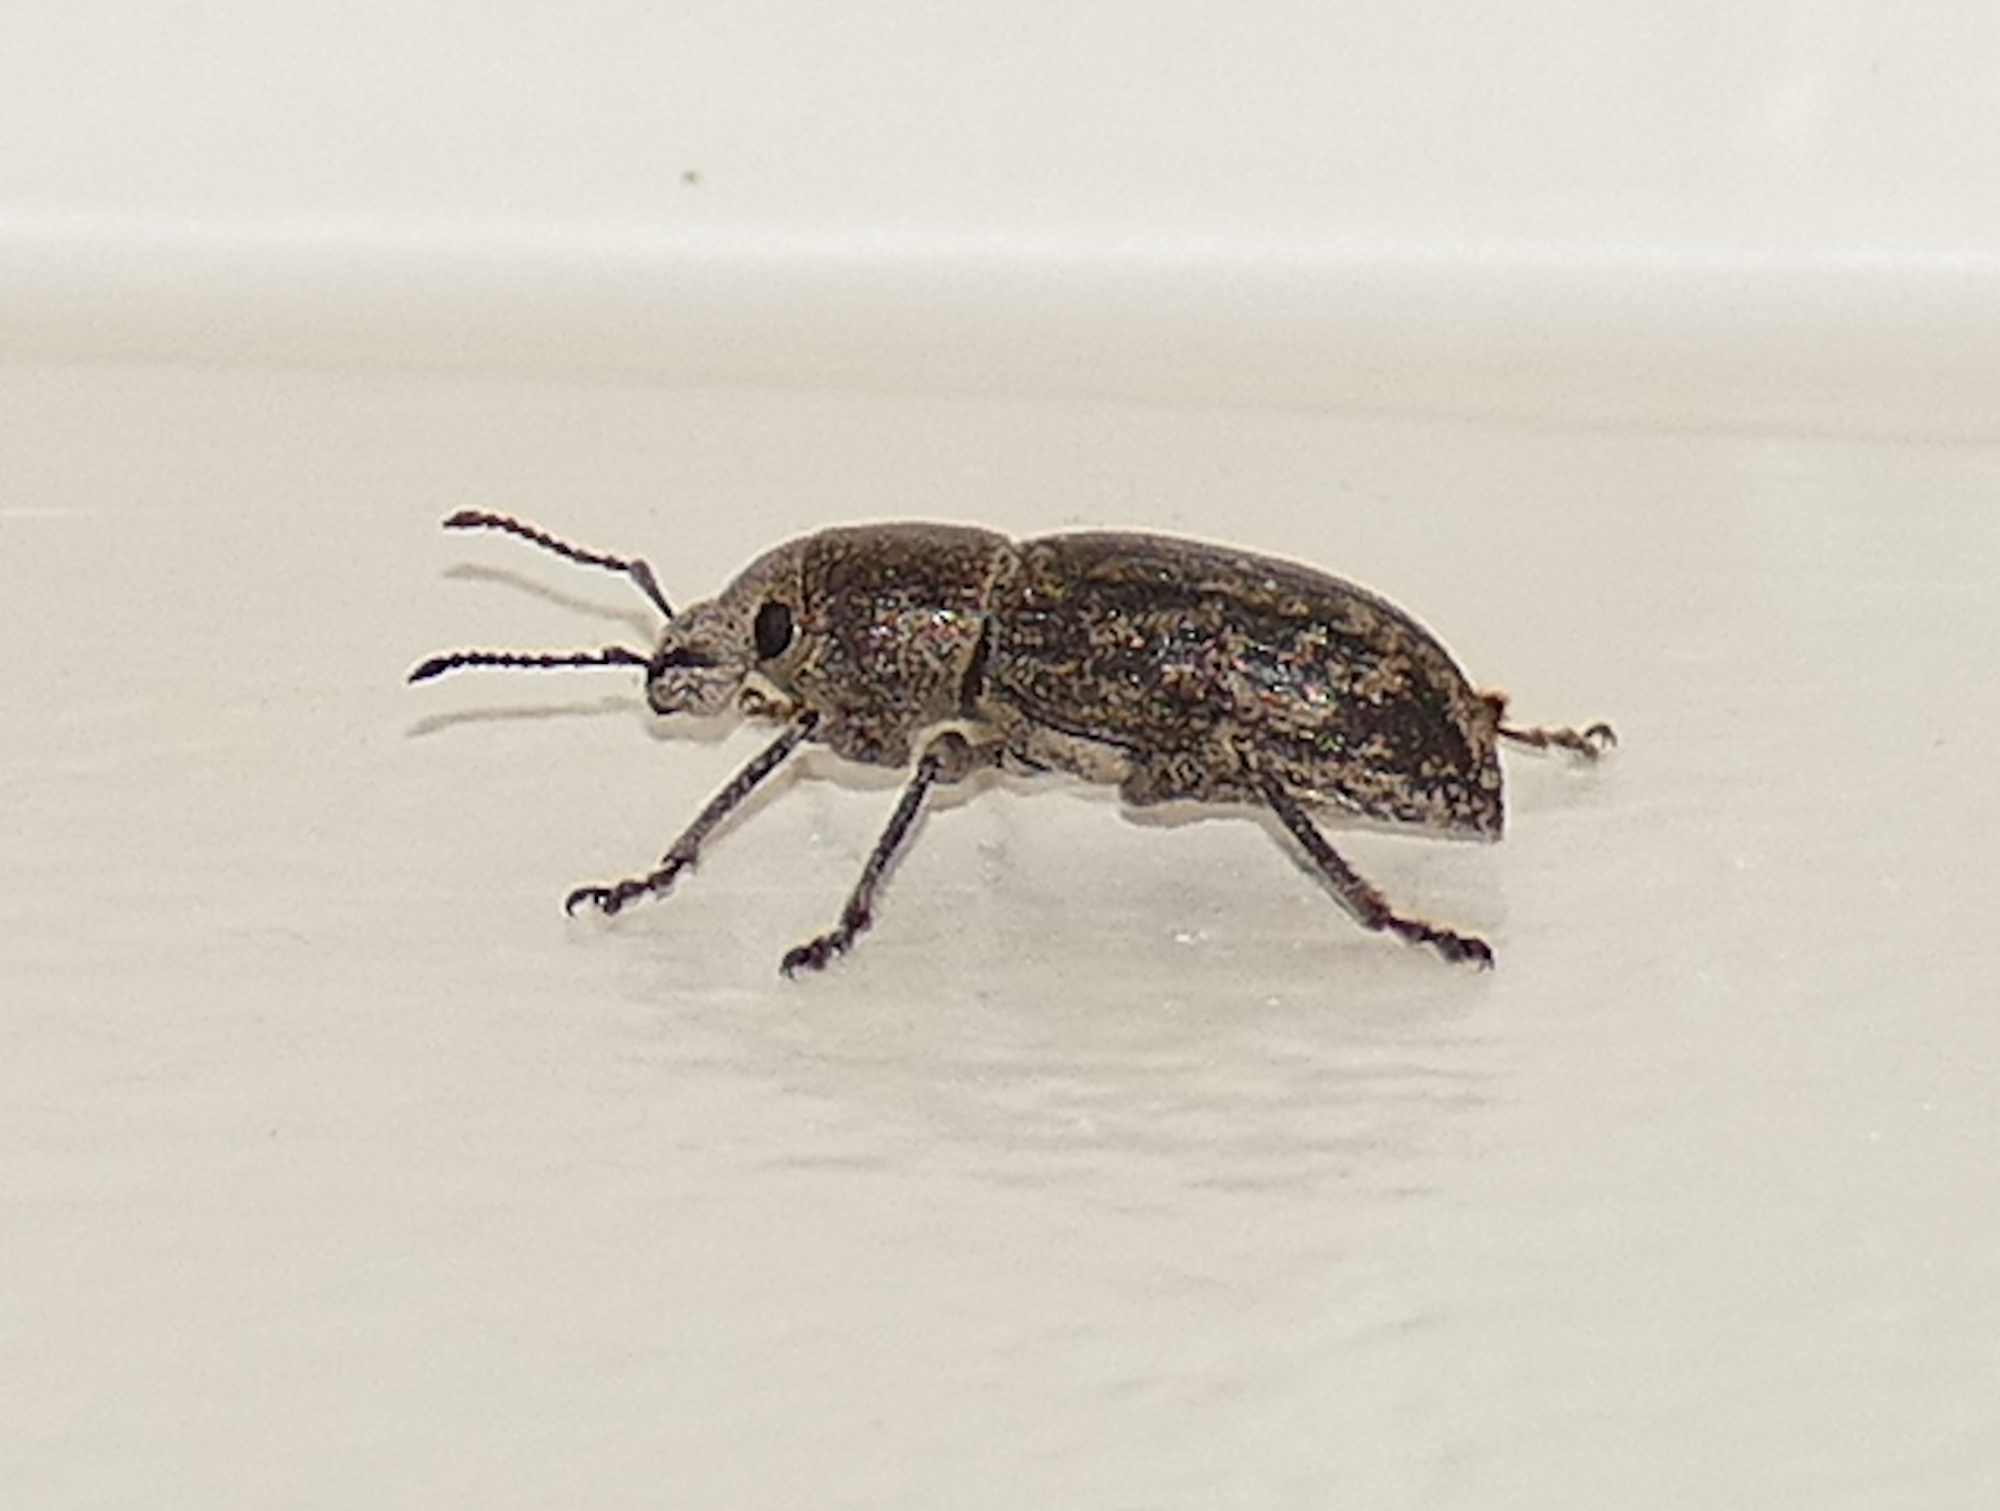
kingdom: Animalia
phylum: Arthropoda
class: Insecta
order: Coleoptera
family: Curculionidae
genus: Orimodema
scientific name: Orimodema protracta
